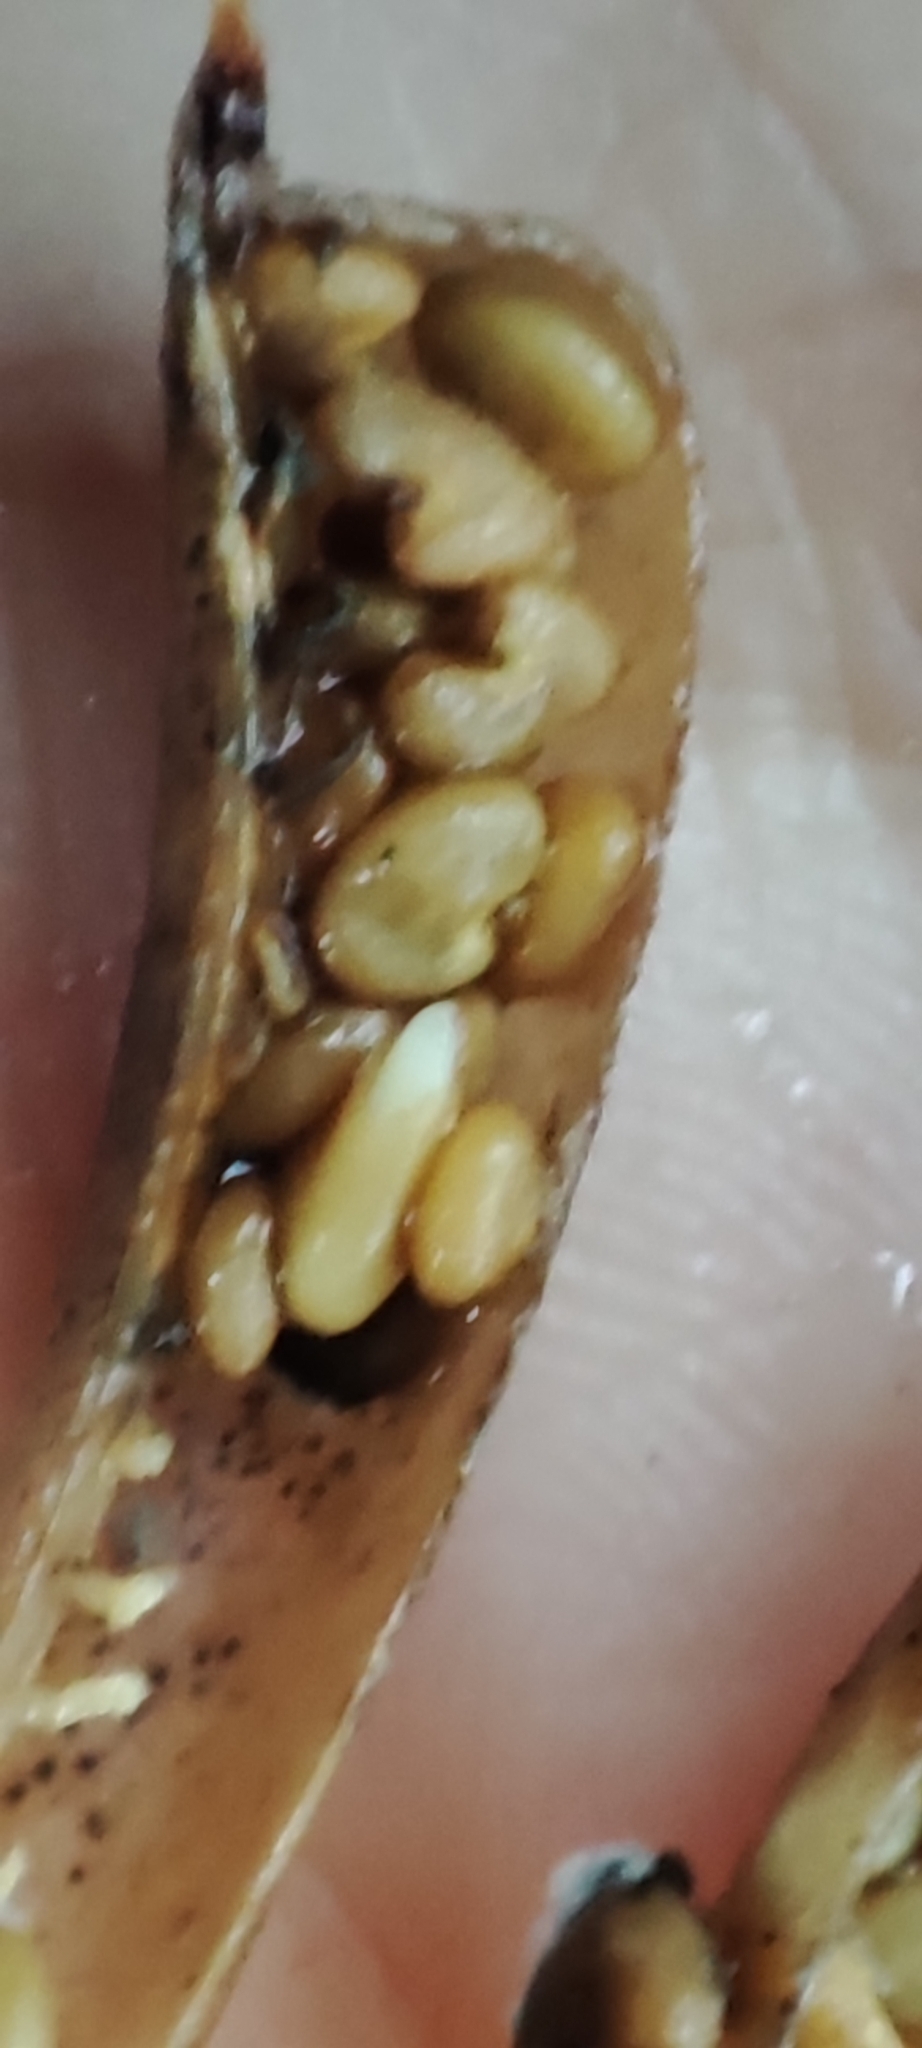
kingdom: Plantae
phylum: Tracheophyta
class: Magnoliopsida
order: Fabales
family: Fabaceae
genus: Crotalaria
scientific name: Crotalaria pallida
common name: Smooth rattlebox
